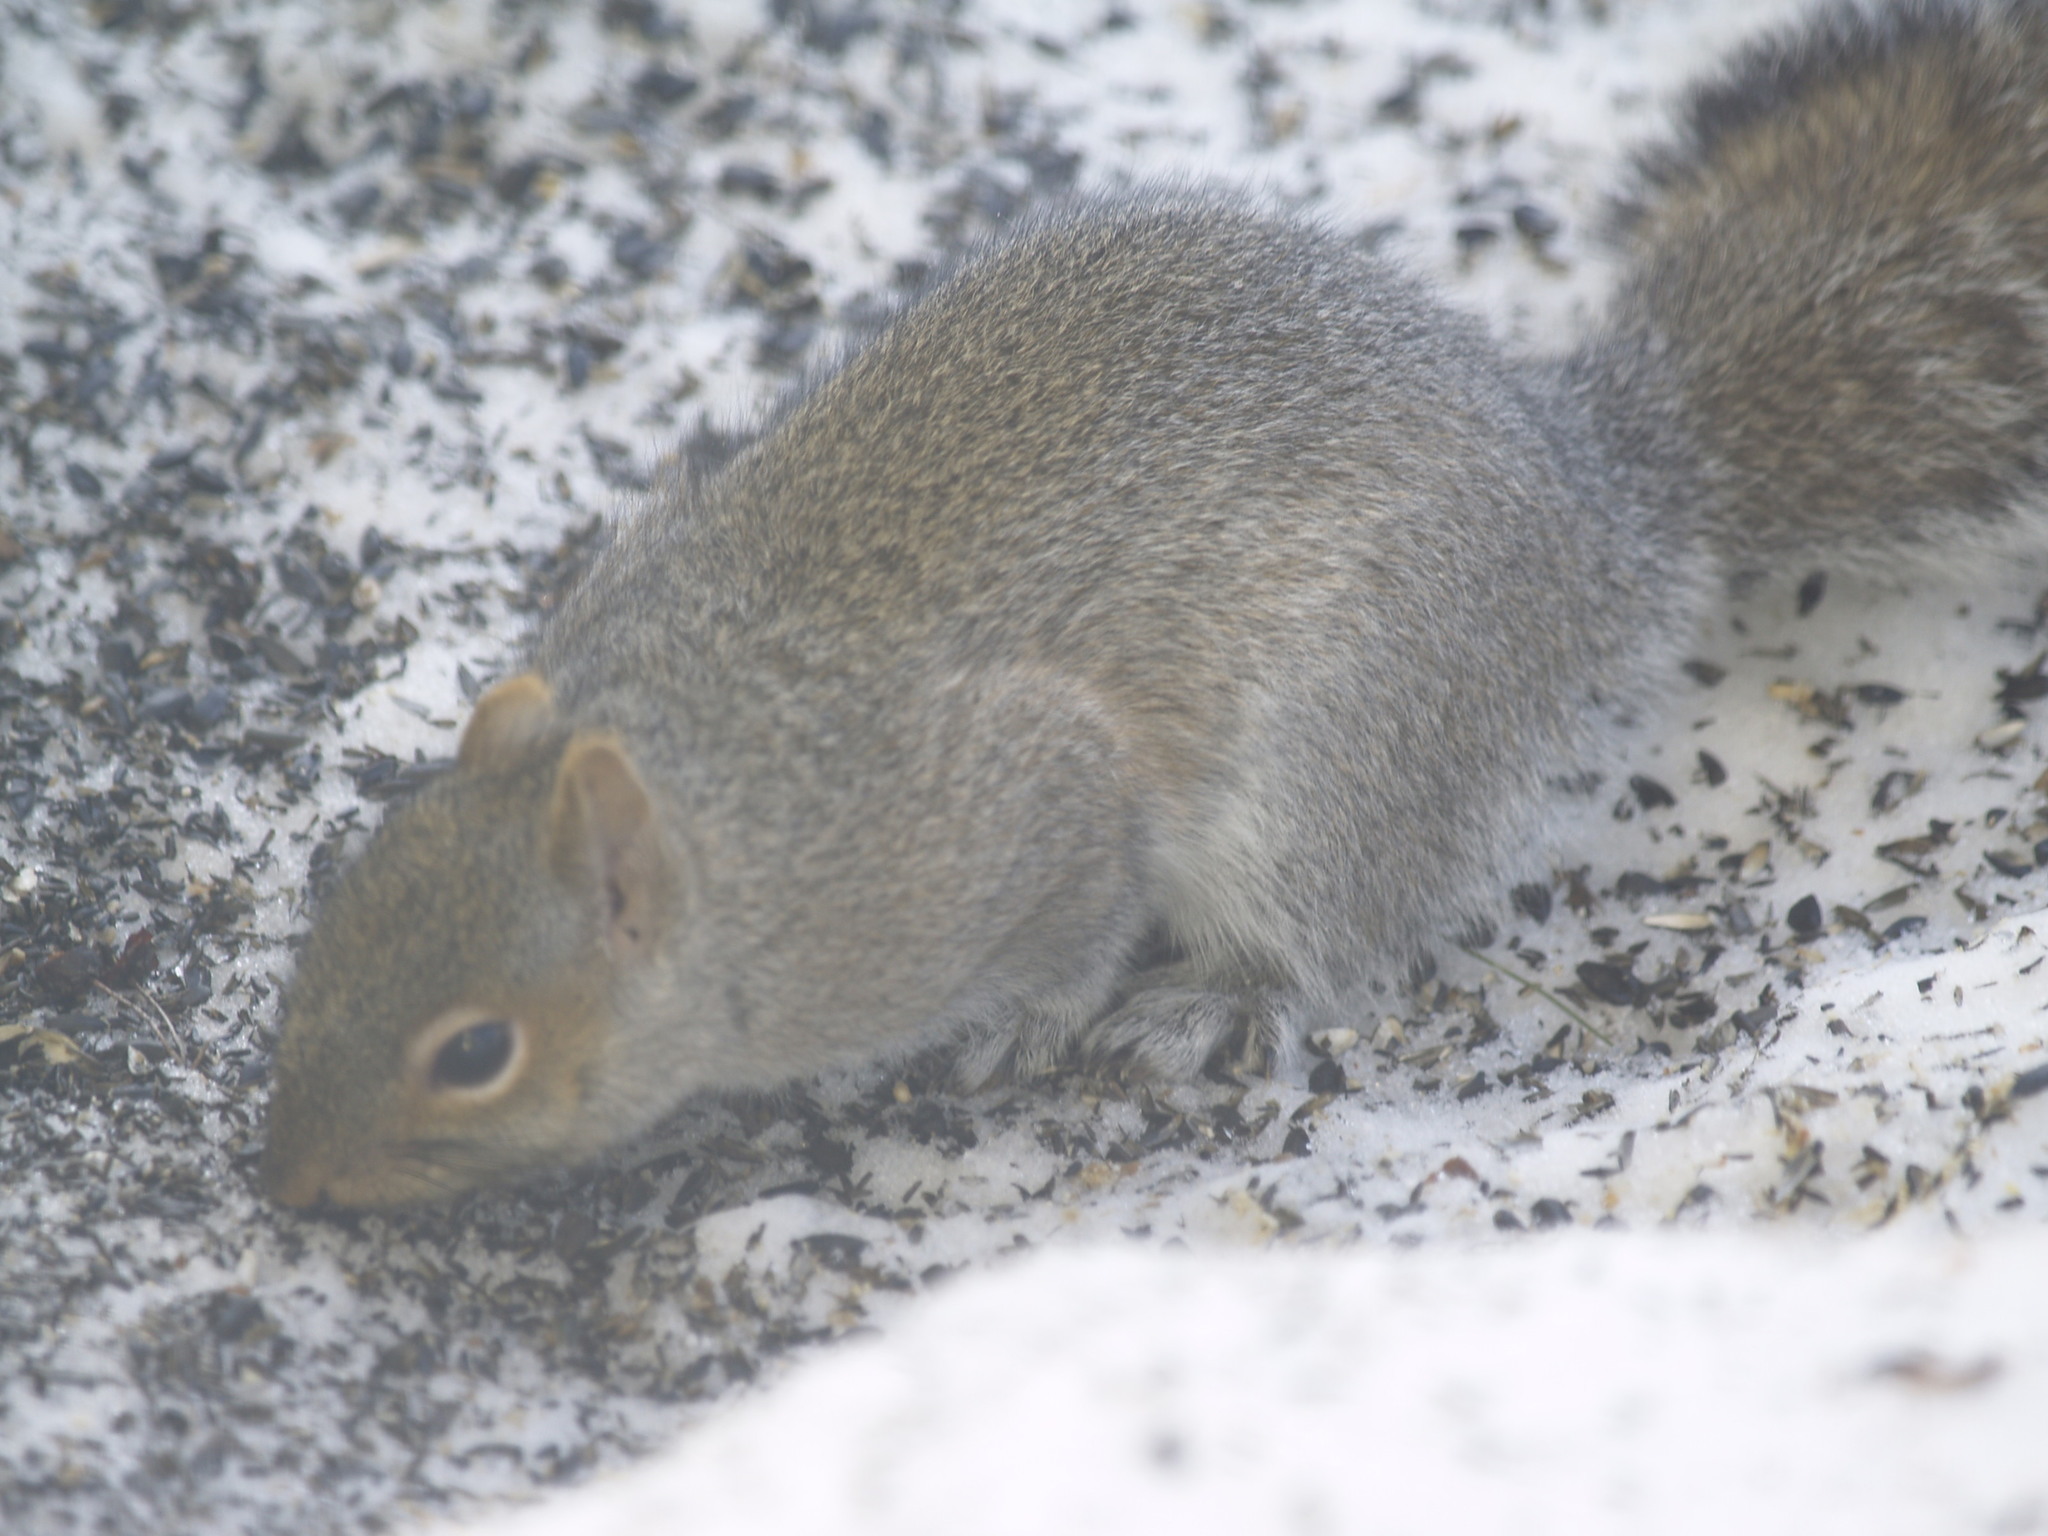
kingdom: Animalia
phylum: Chordata
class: Mammalia
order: Rodentia
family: Sciuridae
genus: Sciurus
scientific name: Sciurus carolinensis
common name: Eastern gray squirrel
